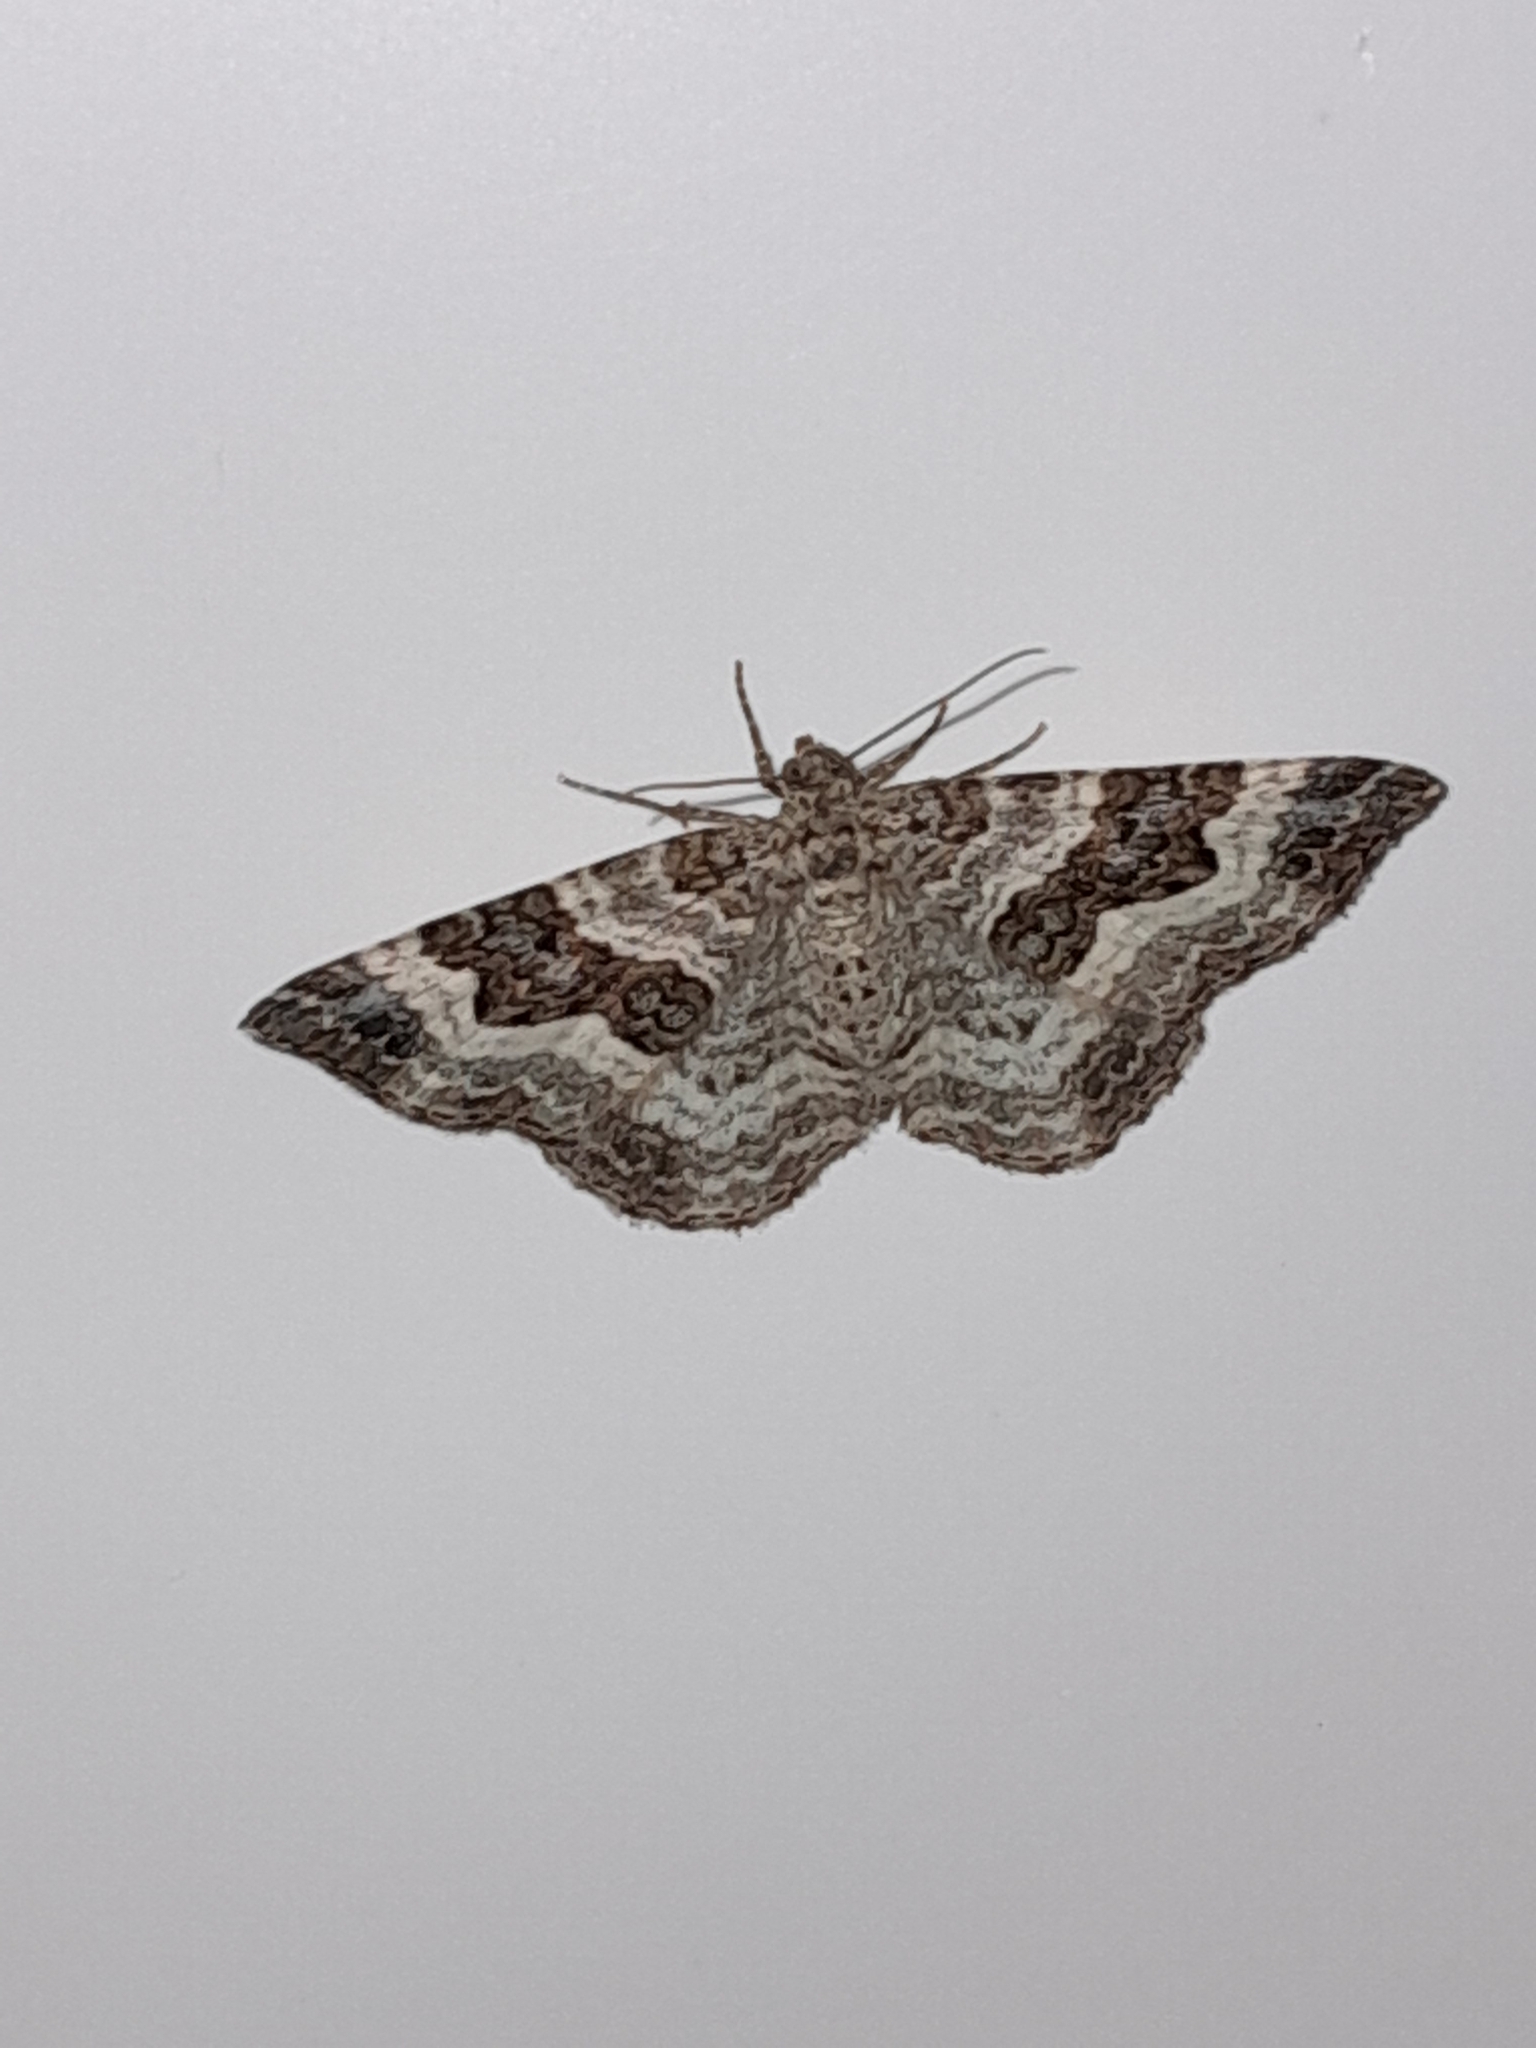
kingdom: Animalia
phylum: Arthropoda
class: Insecta
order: Lepidoptera
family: Geometridae
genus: Epirrhoe
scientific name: Epirrhoe alternata
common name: Common carpet
